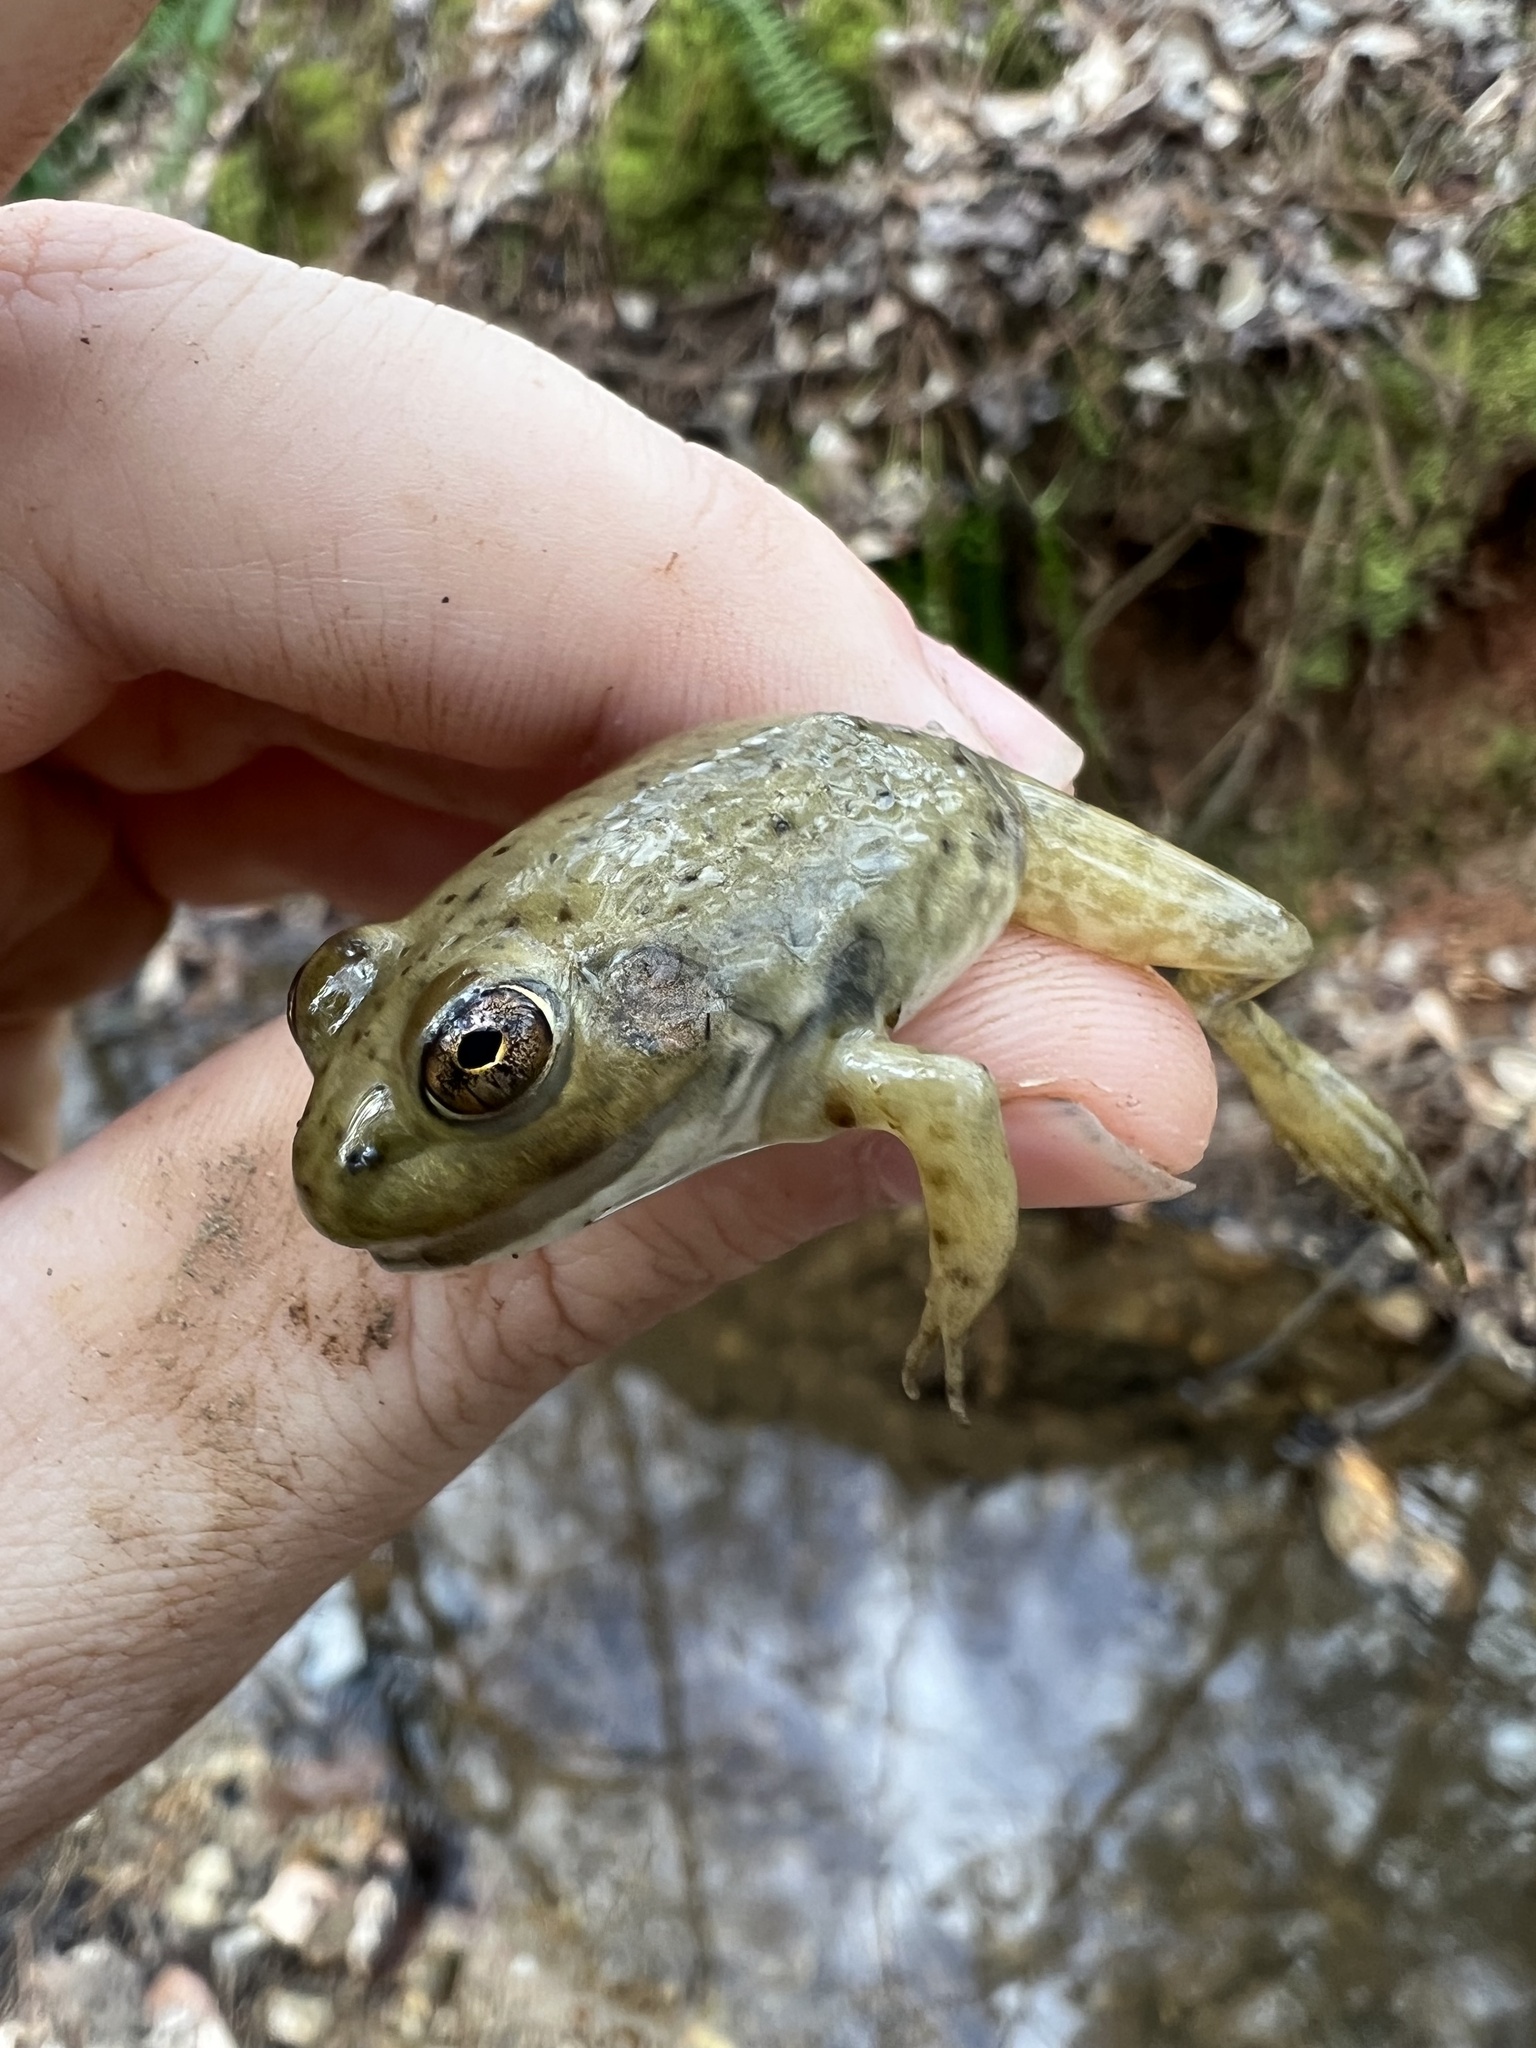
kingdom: Animalia
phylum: Chordata
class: Amphibia
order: Anura
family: Ranidae
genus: Lithobates
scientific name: Lithobates catesbeianus
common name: American bullfrog
